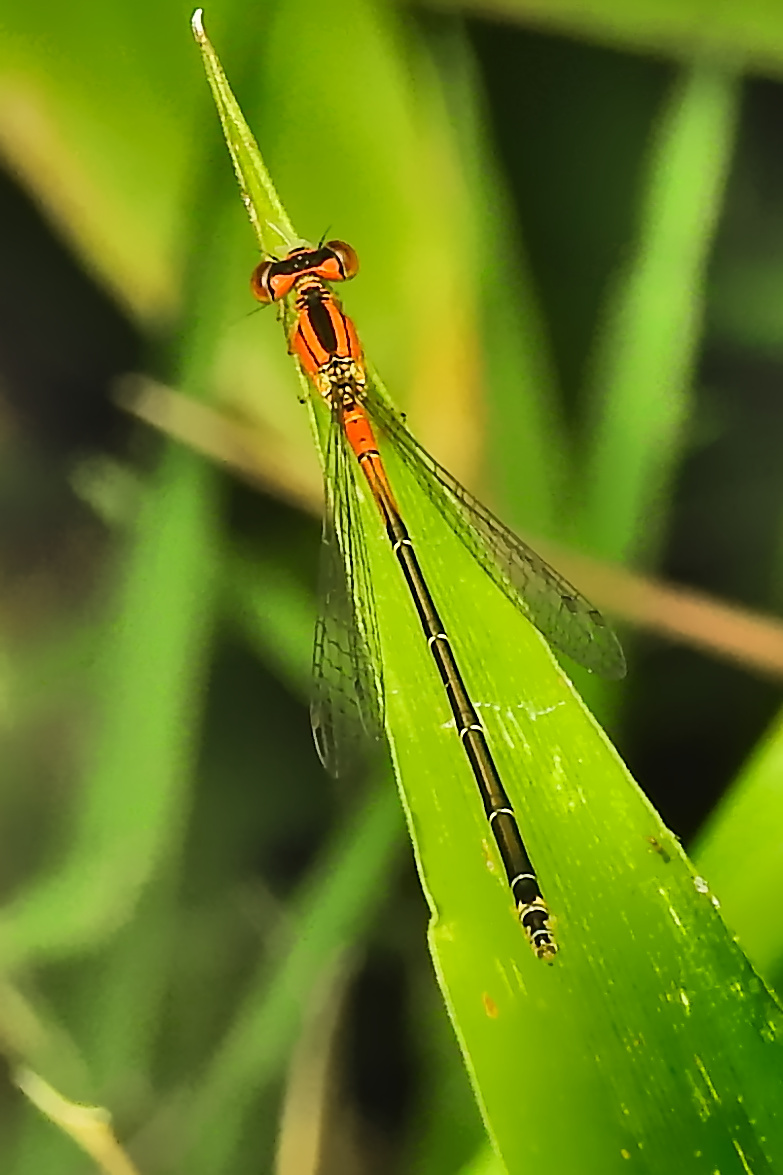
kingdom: Animalia
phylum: Arthropoda
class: Insecta
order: Odonata
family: Coenagrionidae
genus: Ischnura
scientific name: Ischnura verticalis
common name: Eastern forktail
